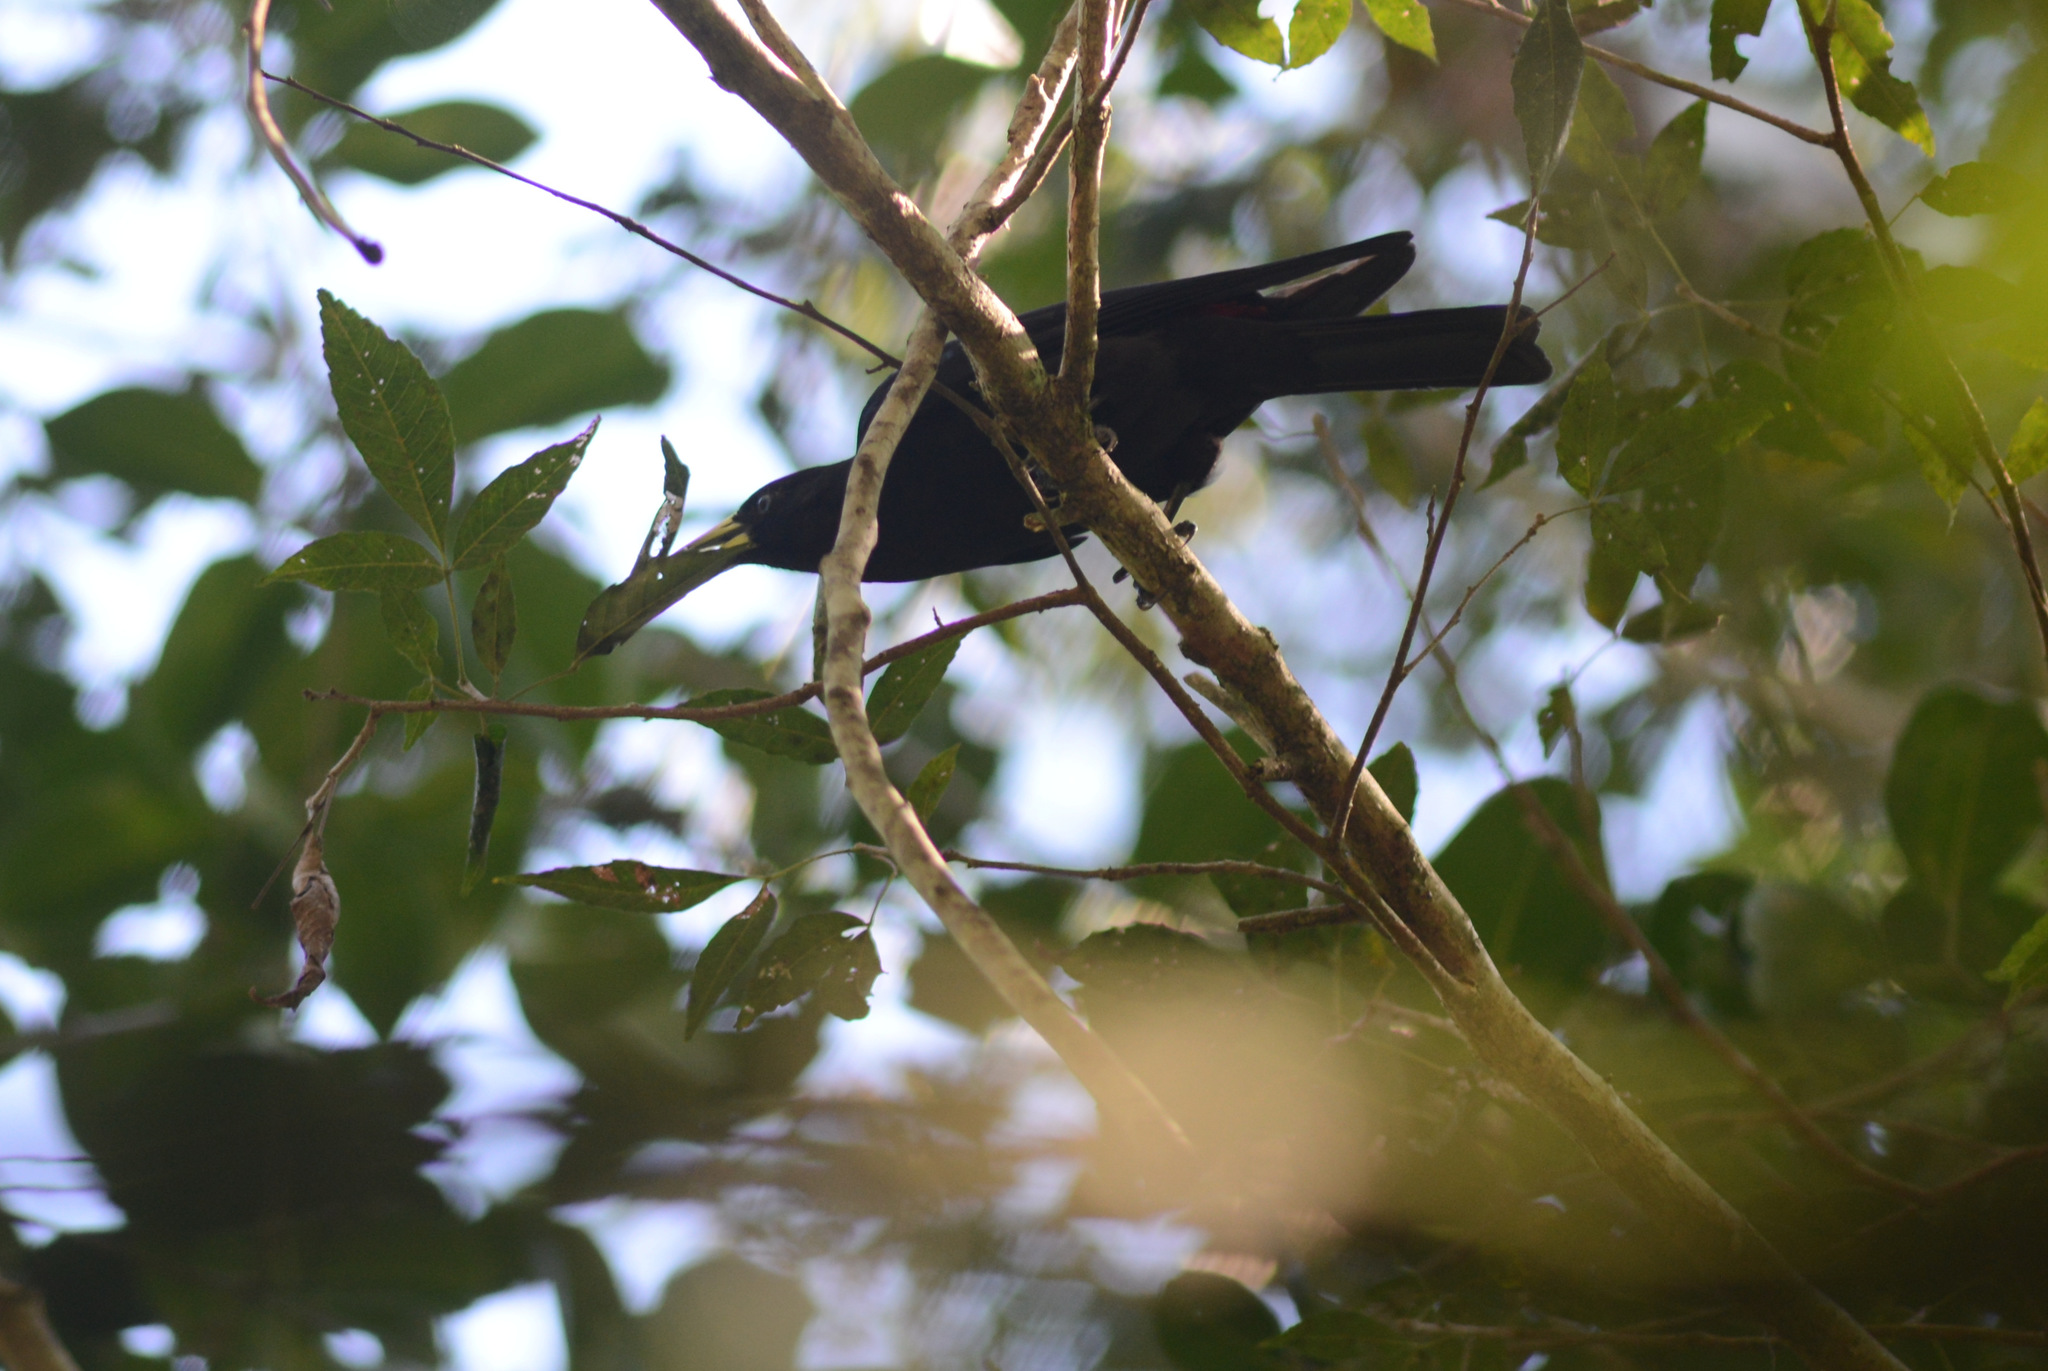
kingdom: Animalia
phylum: Chordata
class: Aves
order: Passeriformes
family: Icteridae
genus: Cacicus
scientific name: Cacicus haemorrhous
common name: Red-rumped cacique
